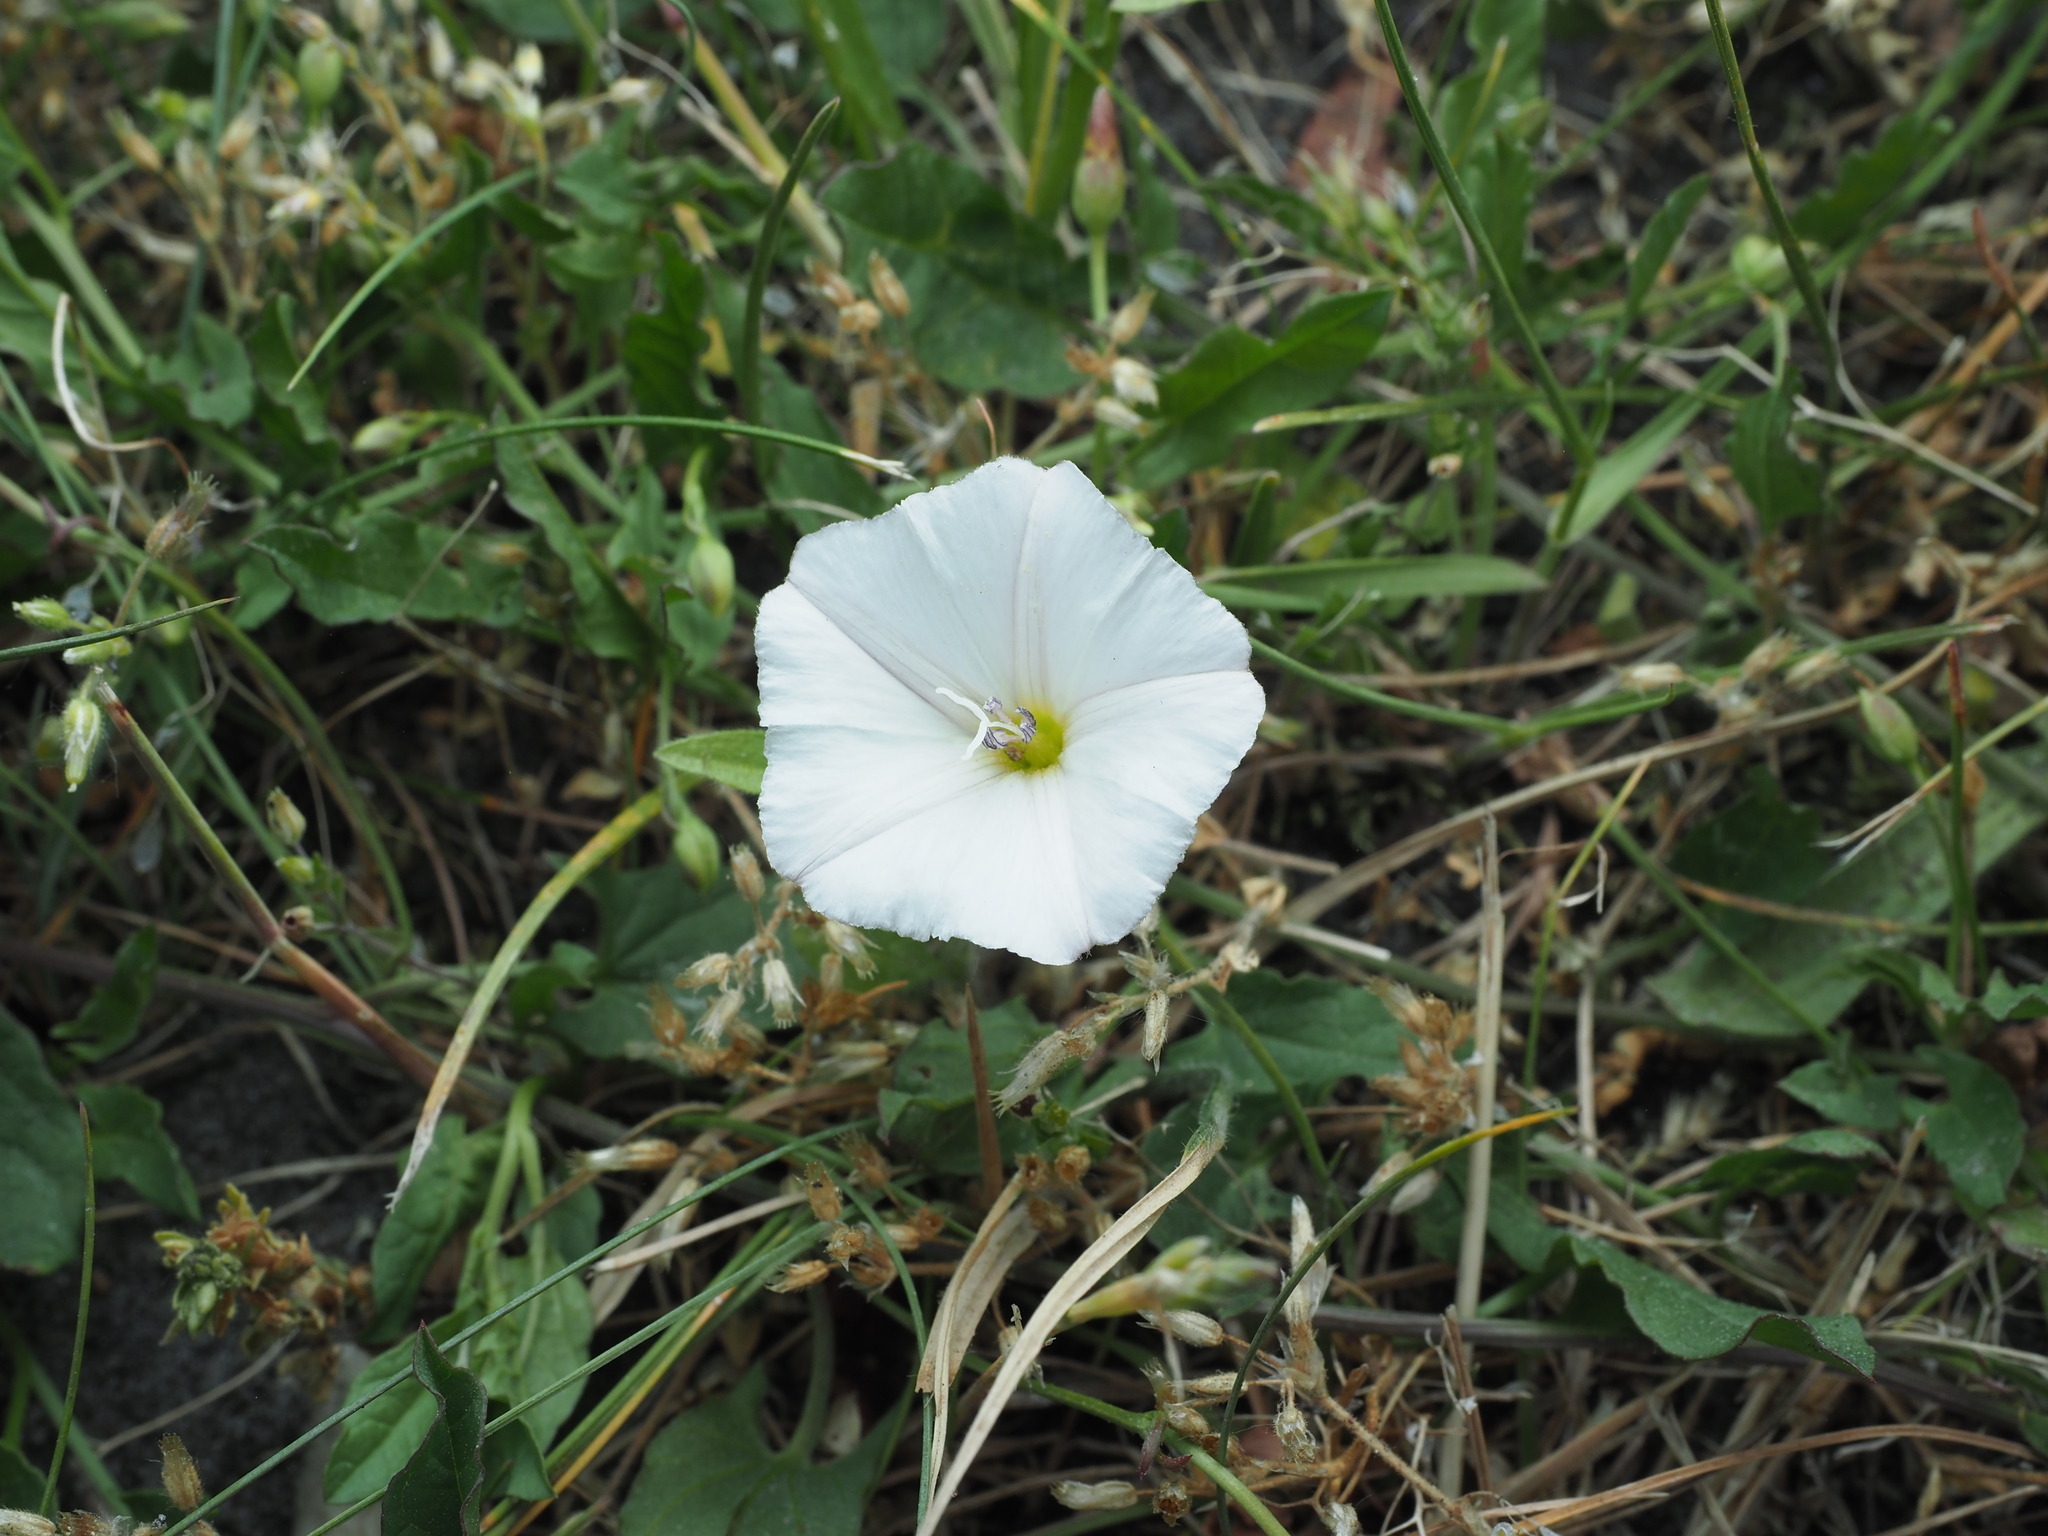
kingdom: Plantae
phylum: Tracheophyta
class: Magnoliopsida
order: Solanales
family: Convolvulaceae
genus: Convolvulus
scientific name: Convolvulus arvensis
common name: Field bindweed
